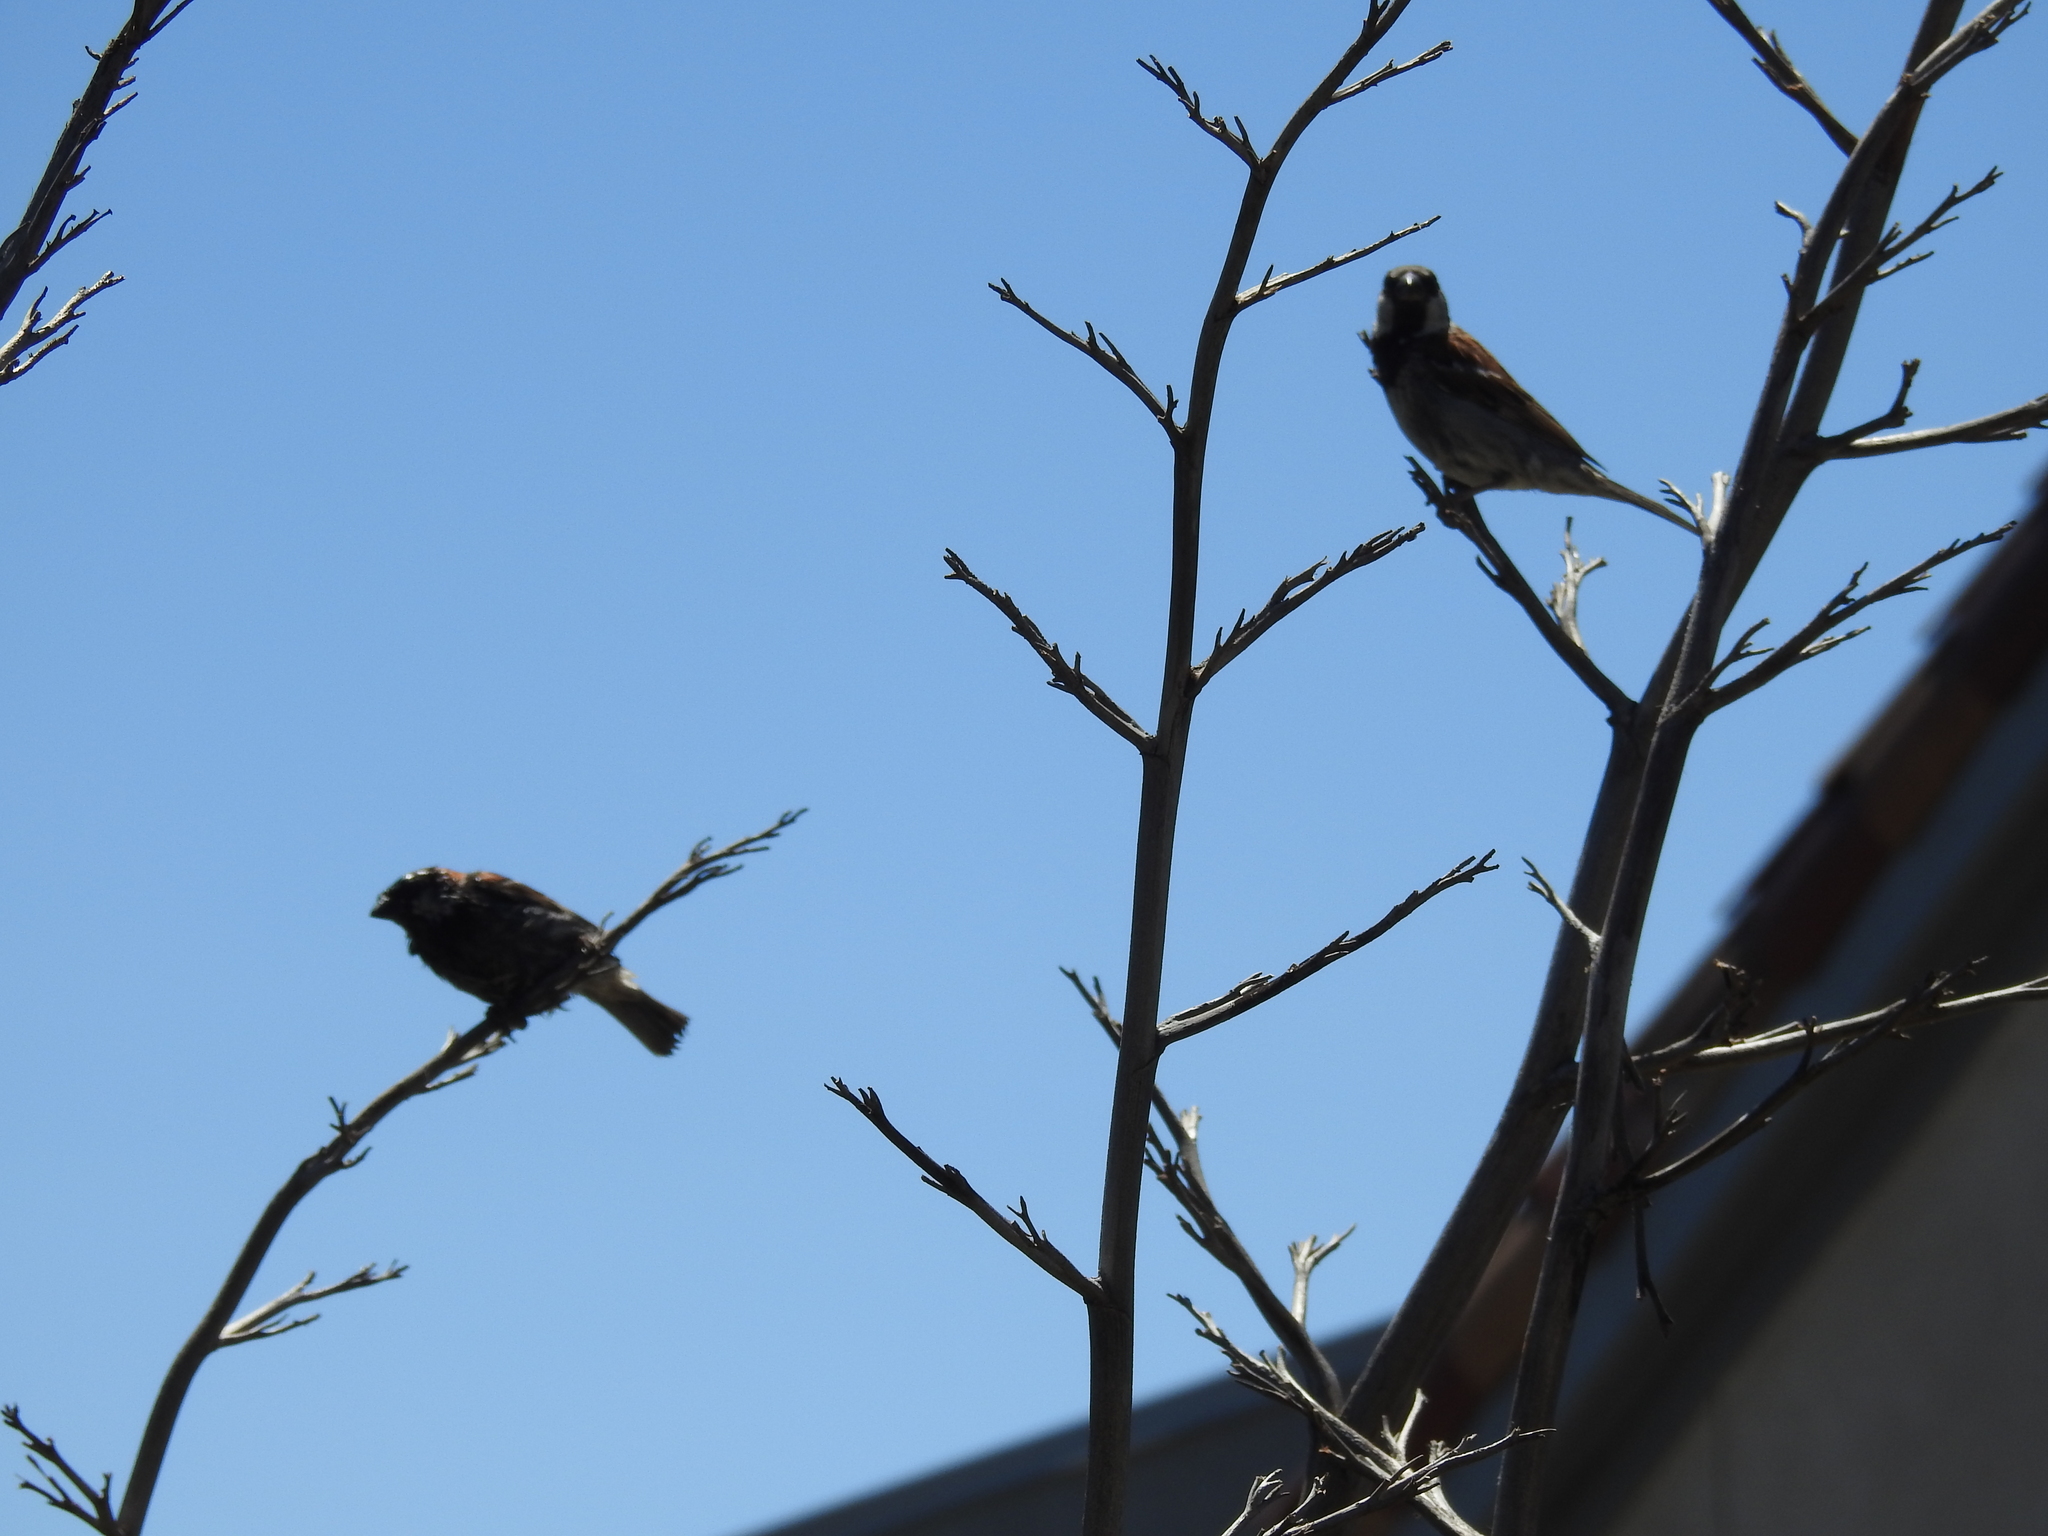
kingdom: Animalia
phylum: Chordata
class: Aves
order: Passeriformes
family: Passeridae
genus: Passer
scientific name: Passer domesticus
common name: House sparrow
